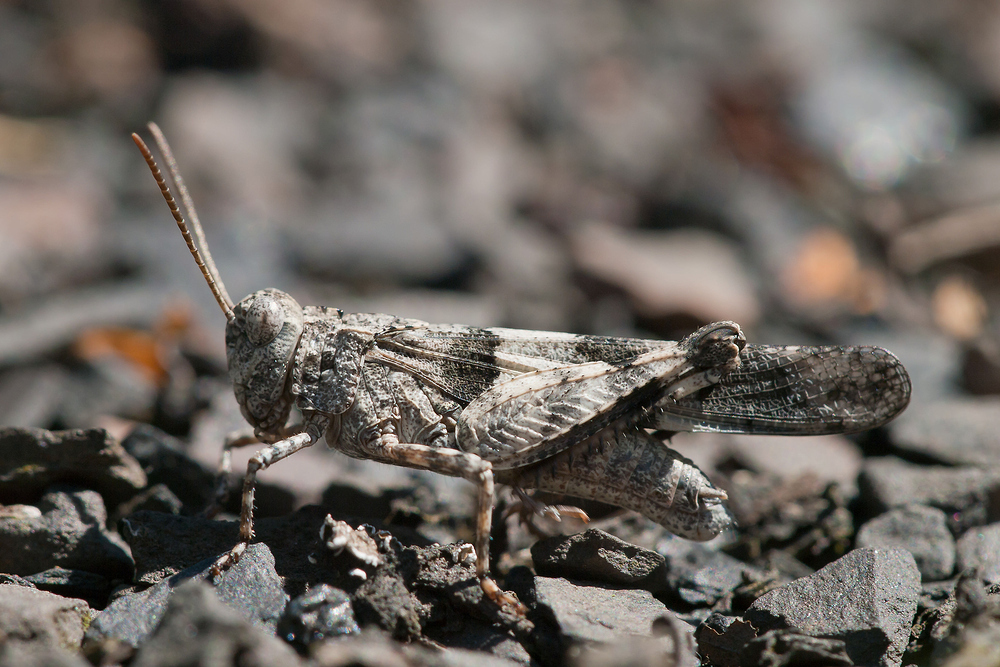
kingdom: Animalia
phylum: Arthropoda
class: Insecta
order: Orthoptera
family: Acrididae
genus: Oedipoda
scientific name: Oedipoda caerulescens
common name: Blue-winged grasshopper
